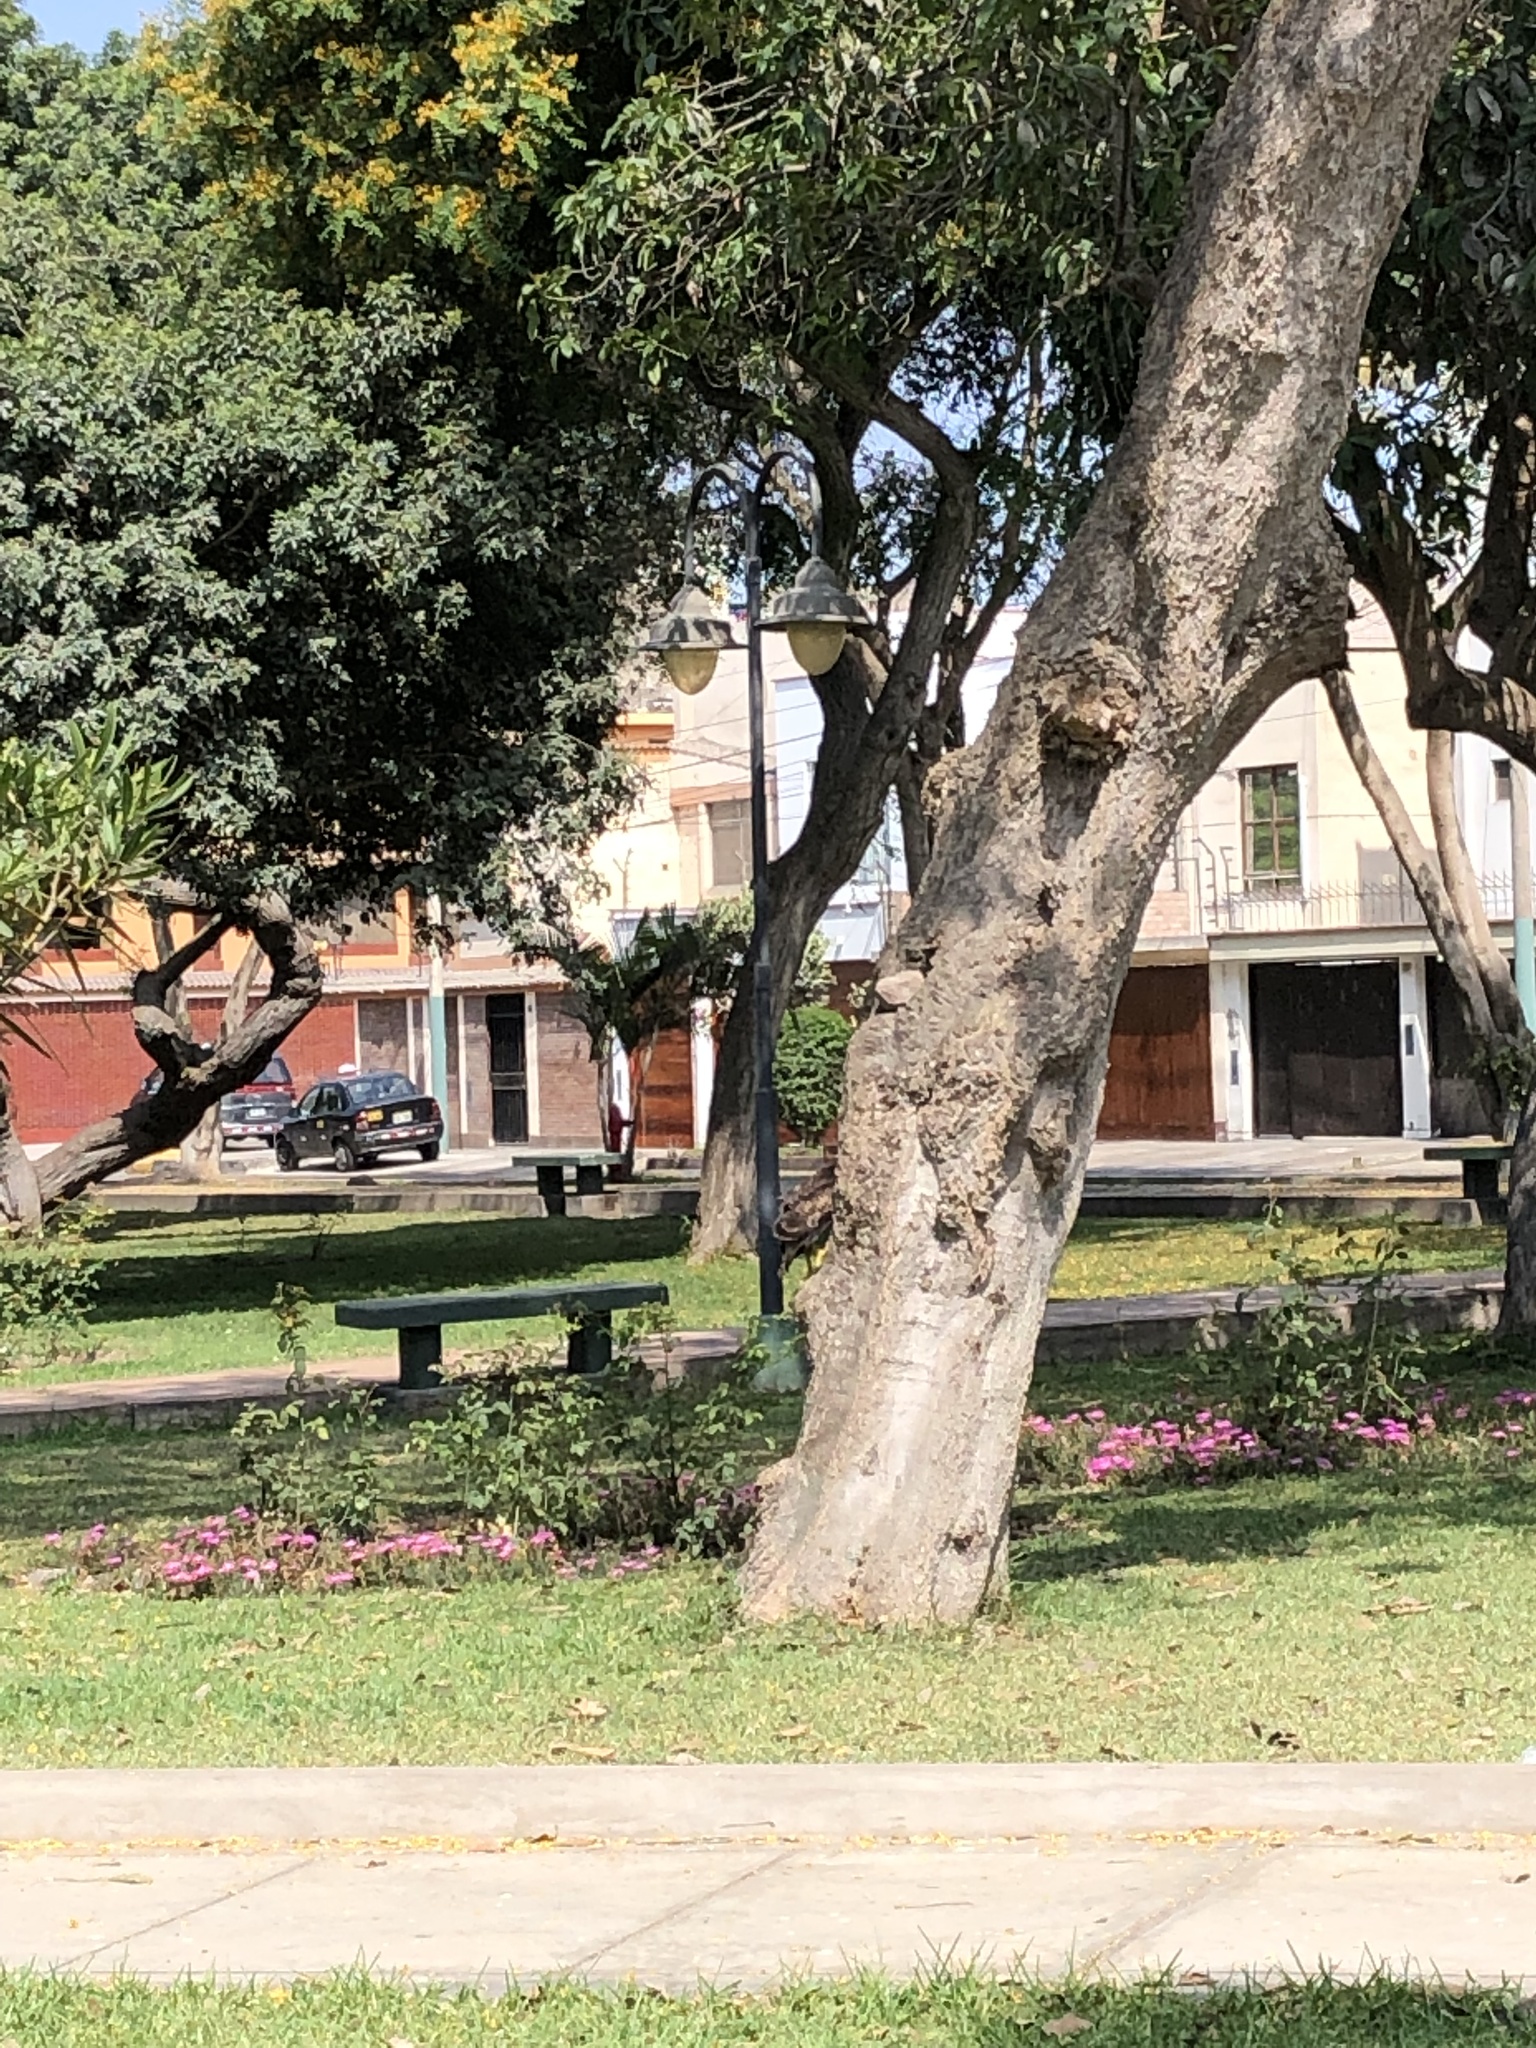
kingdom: Animalia
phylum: Chordata
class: Aves
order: Accipitriformes
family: Accipitridae
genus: Parabuteo
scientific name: Parabuteo unicinctus
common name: Harris's hawk
